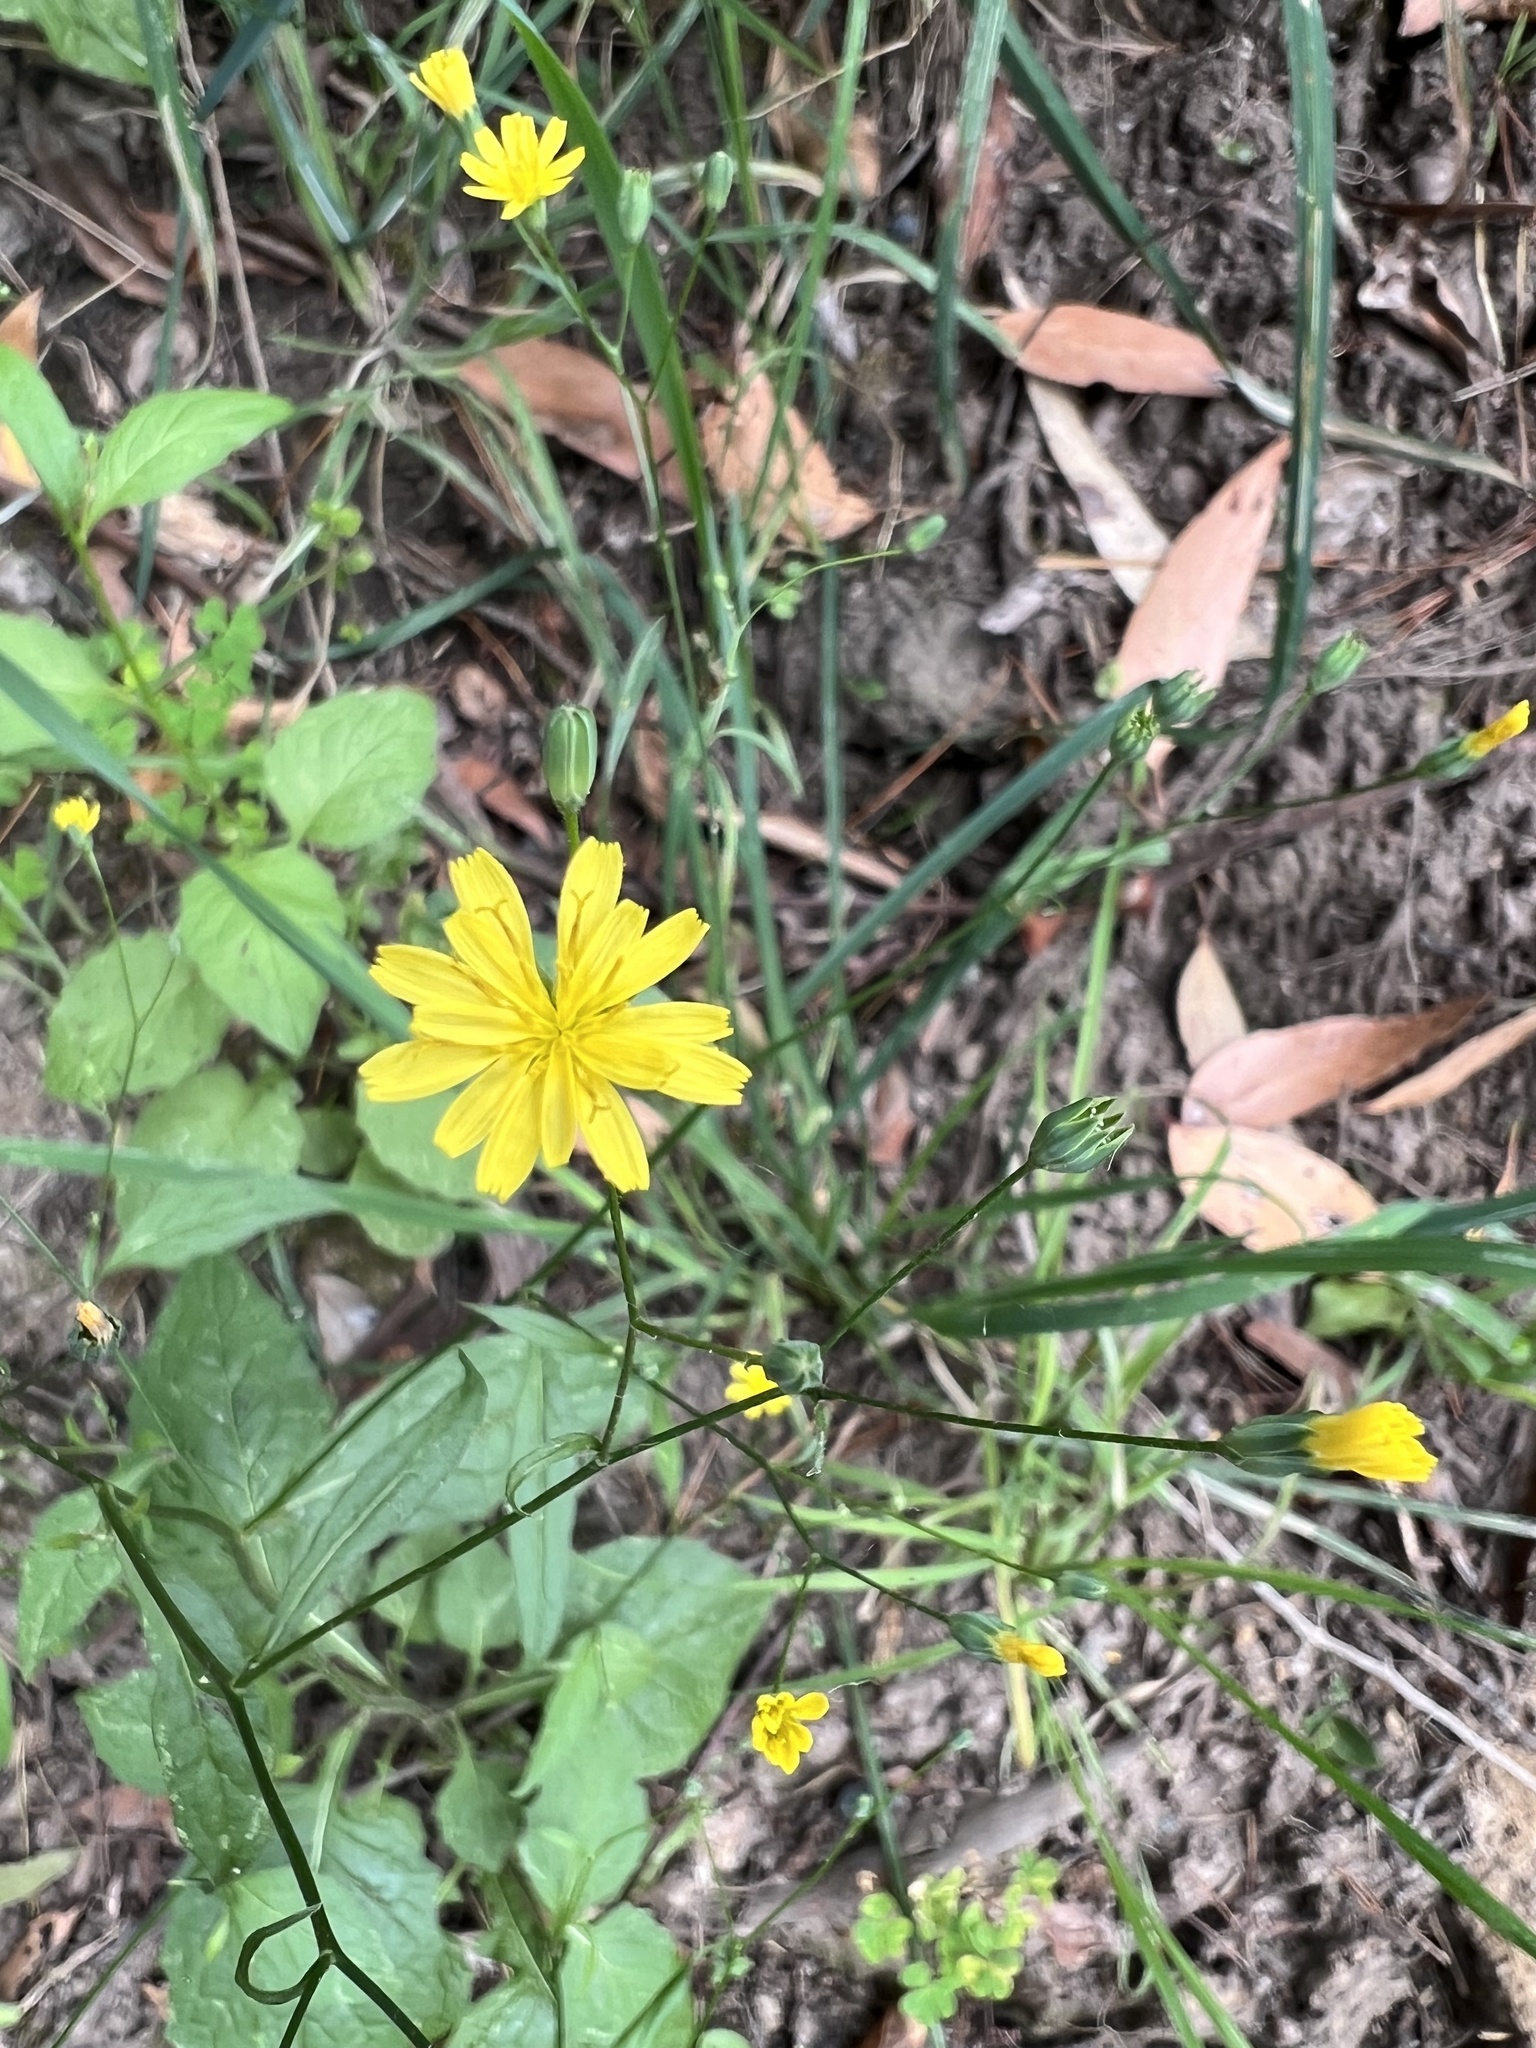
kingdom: Plantae
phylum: Tracheophyta
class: Magnoliopsida
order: Asterales
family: Asteraceae
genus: Lapsana
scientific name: Lapsana communis
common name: Nipplewort
